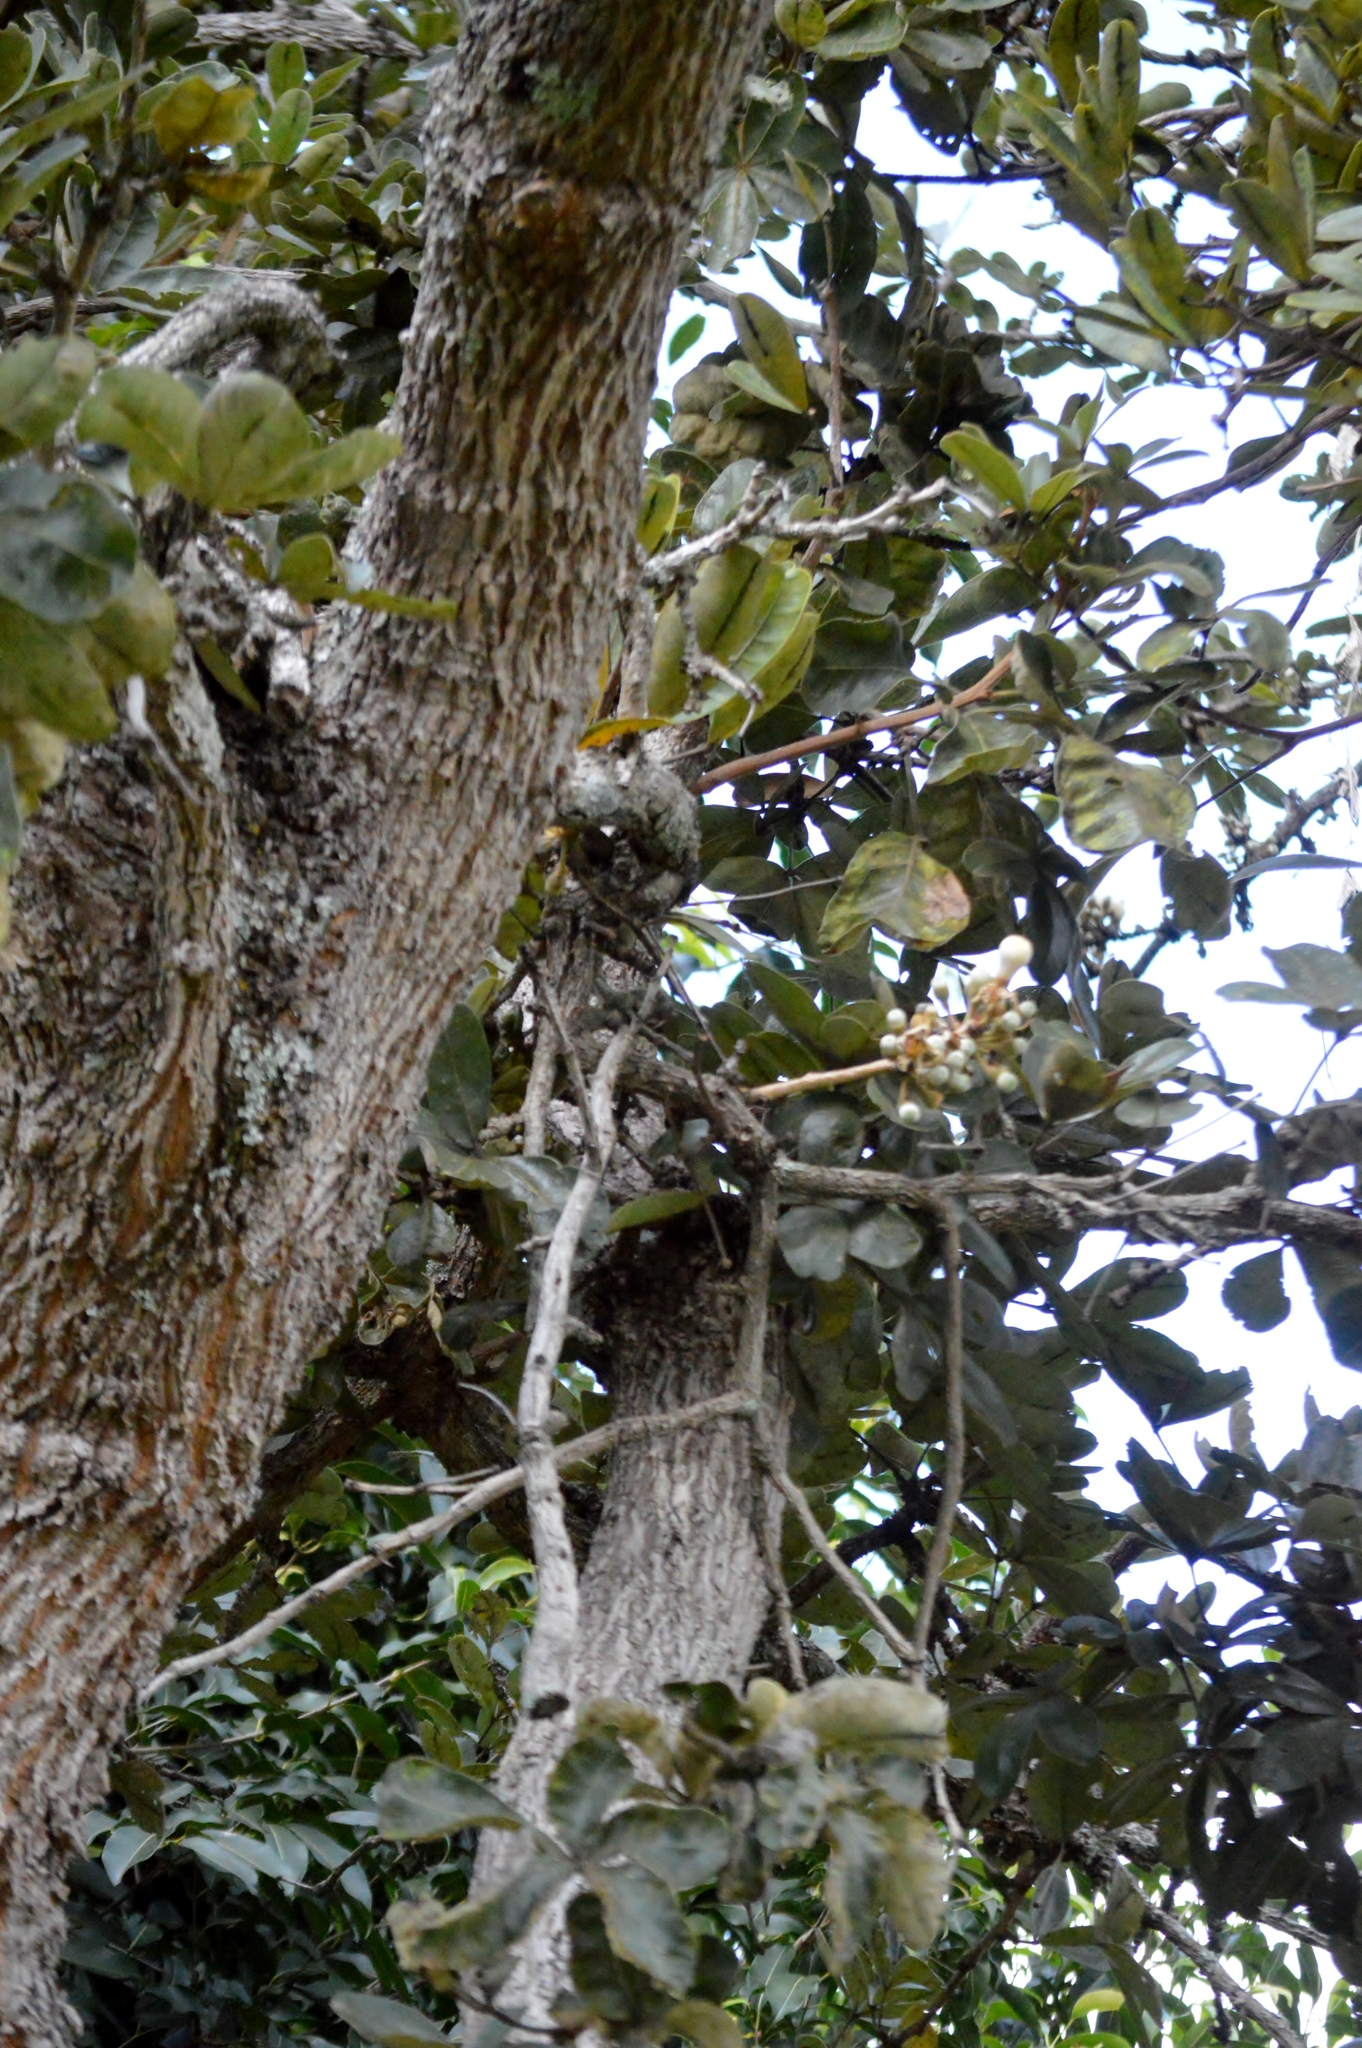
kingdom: Plantae
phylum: Tracheophyta
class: Magnoliopsida
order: Malvales
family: Malvaceae
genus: Eriotheca
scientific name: Eriotheca pubescens
